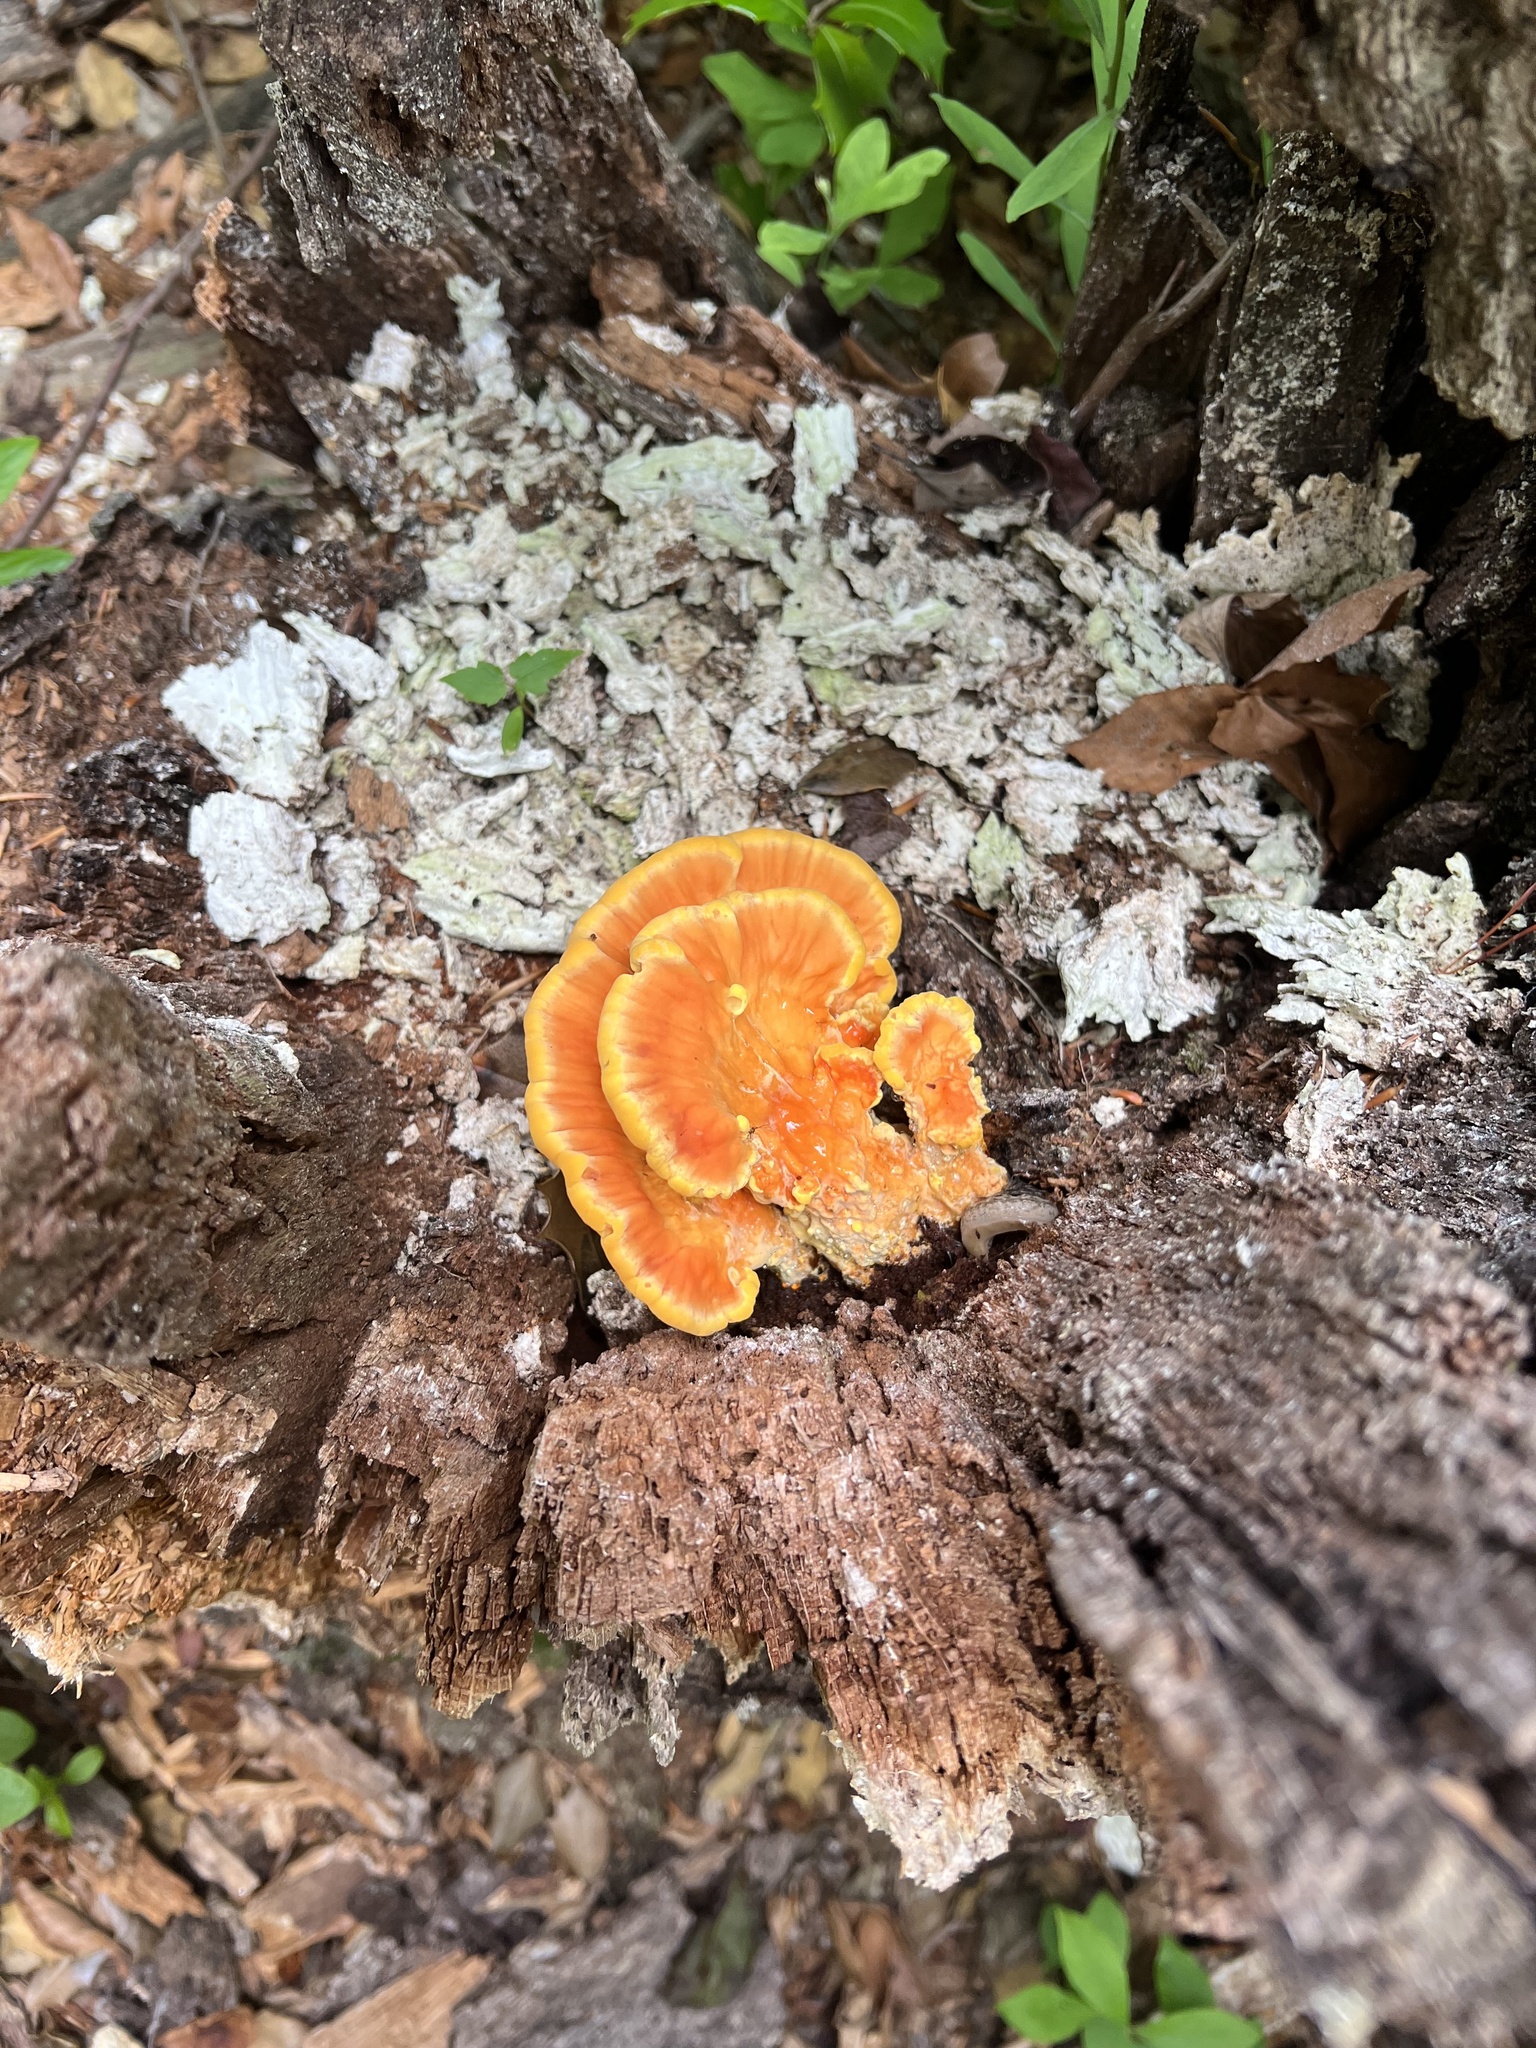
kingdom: Fungi
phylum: Basidiomycota
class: Agaricomycetes
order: Polyporales
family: Laetiporaceae
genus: Laetiporus
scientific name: Laetiporus sulphureus
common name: Chicken of the woods
